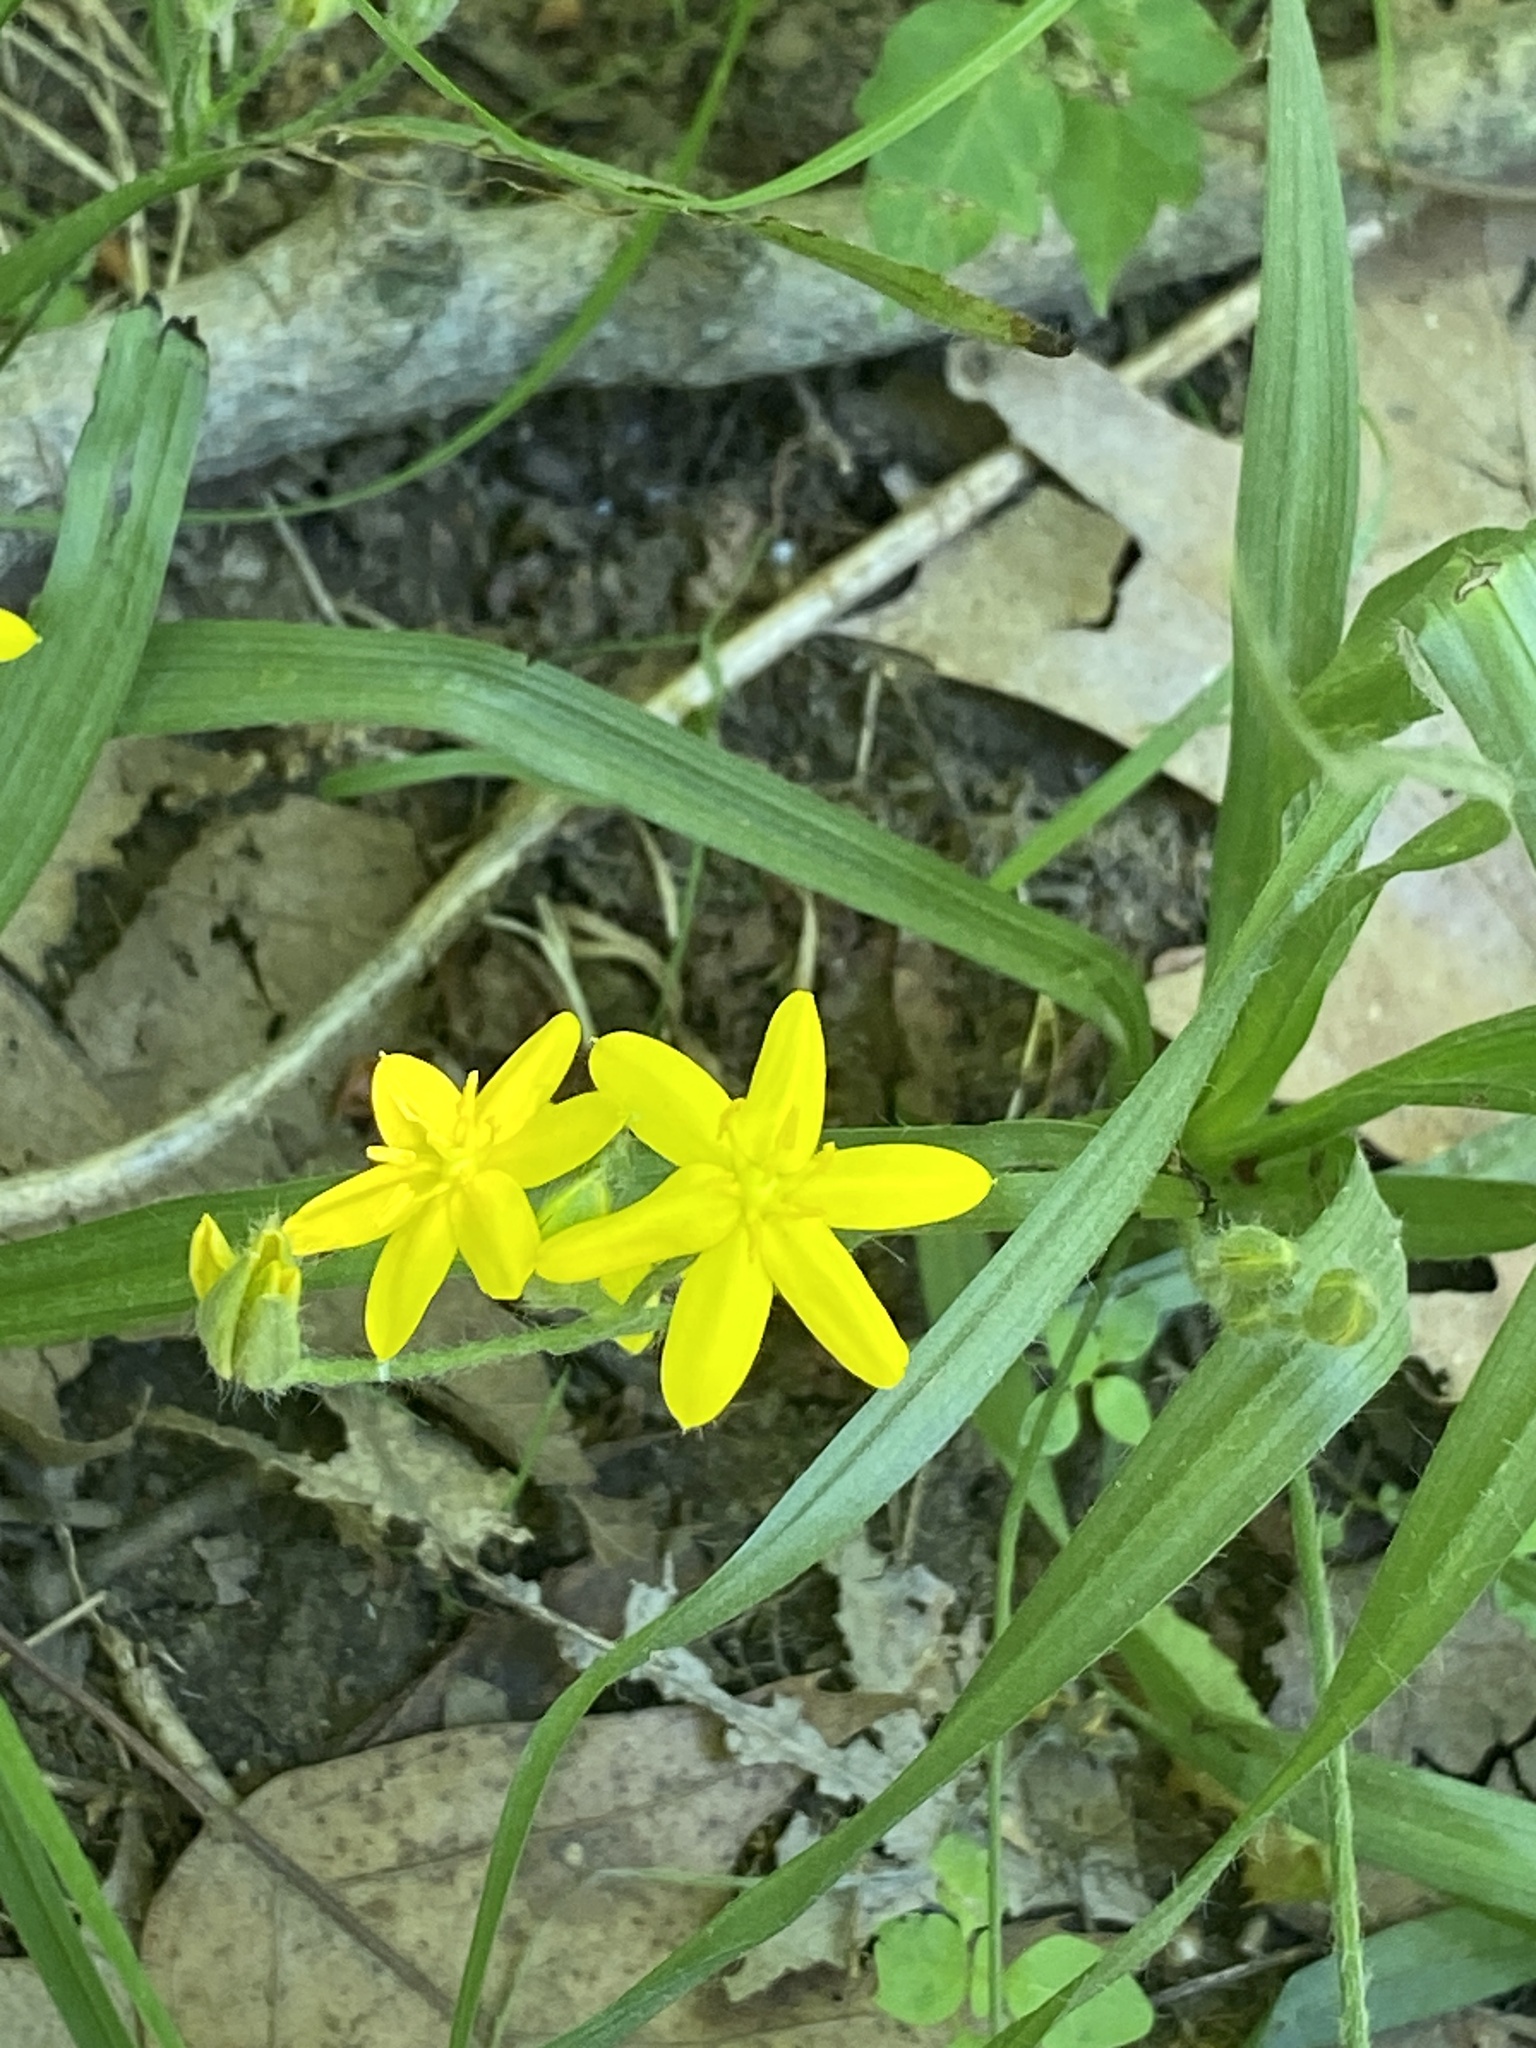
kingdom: Plantae
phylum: Tracheophyta
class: Liliopsida
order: Asparagales
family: Hypoxidaceae
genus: Hypoxis
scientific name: Hypoxis hirsuta
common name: Common goldstar
